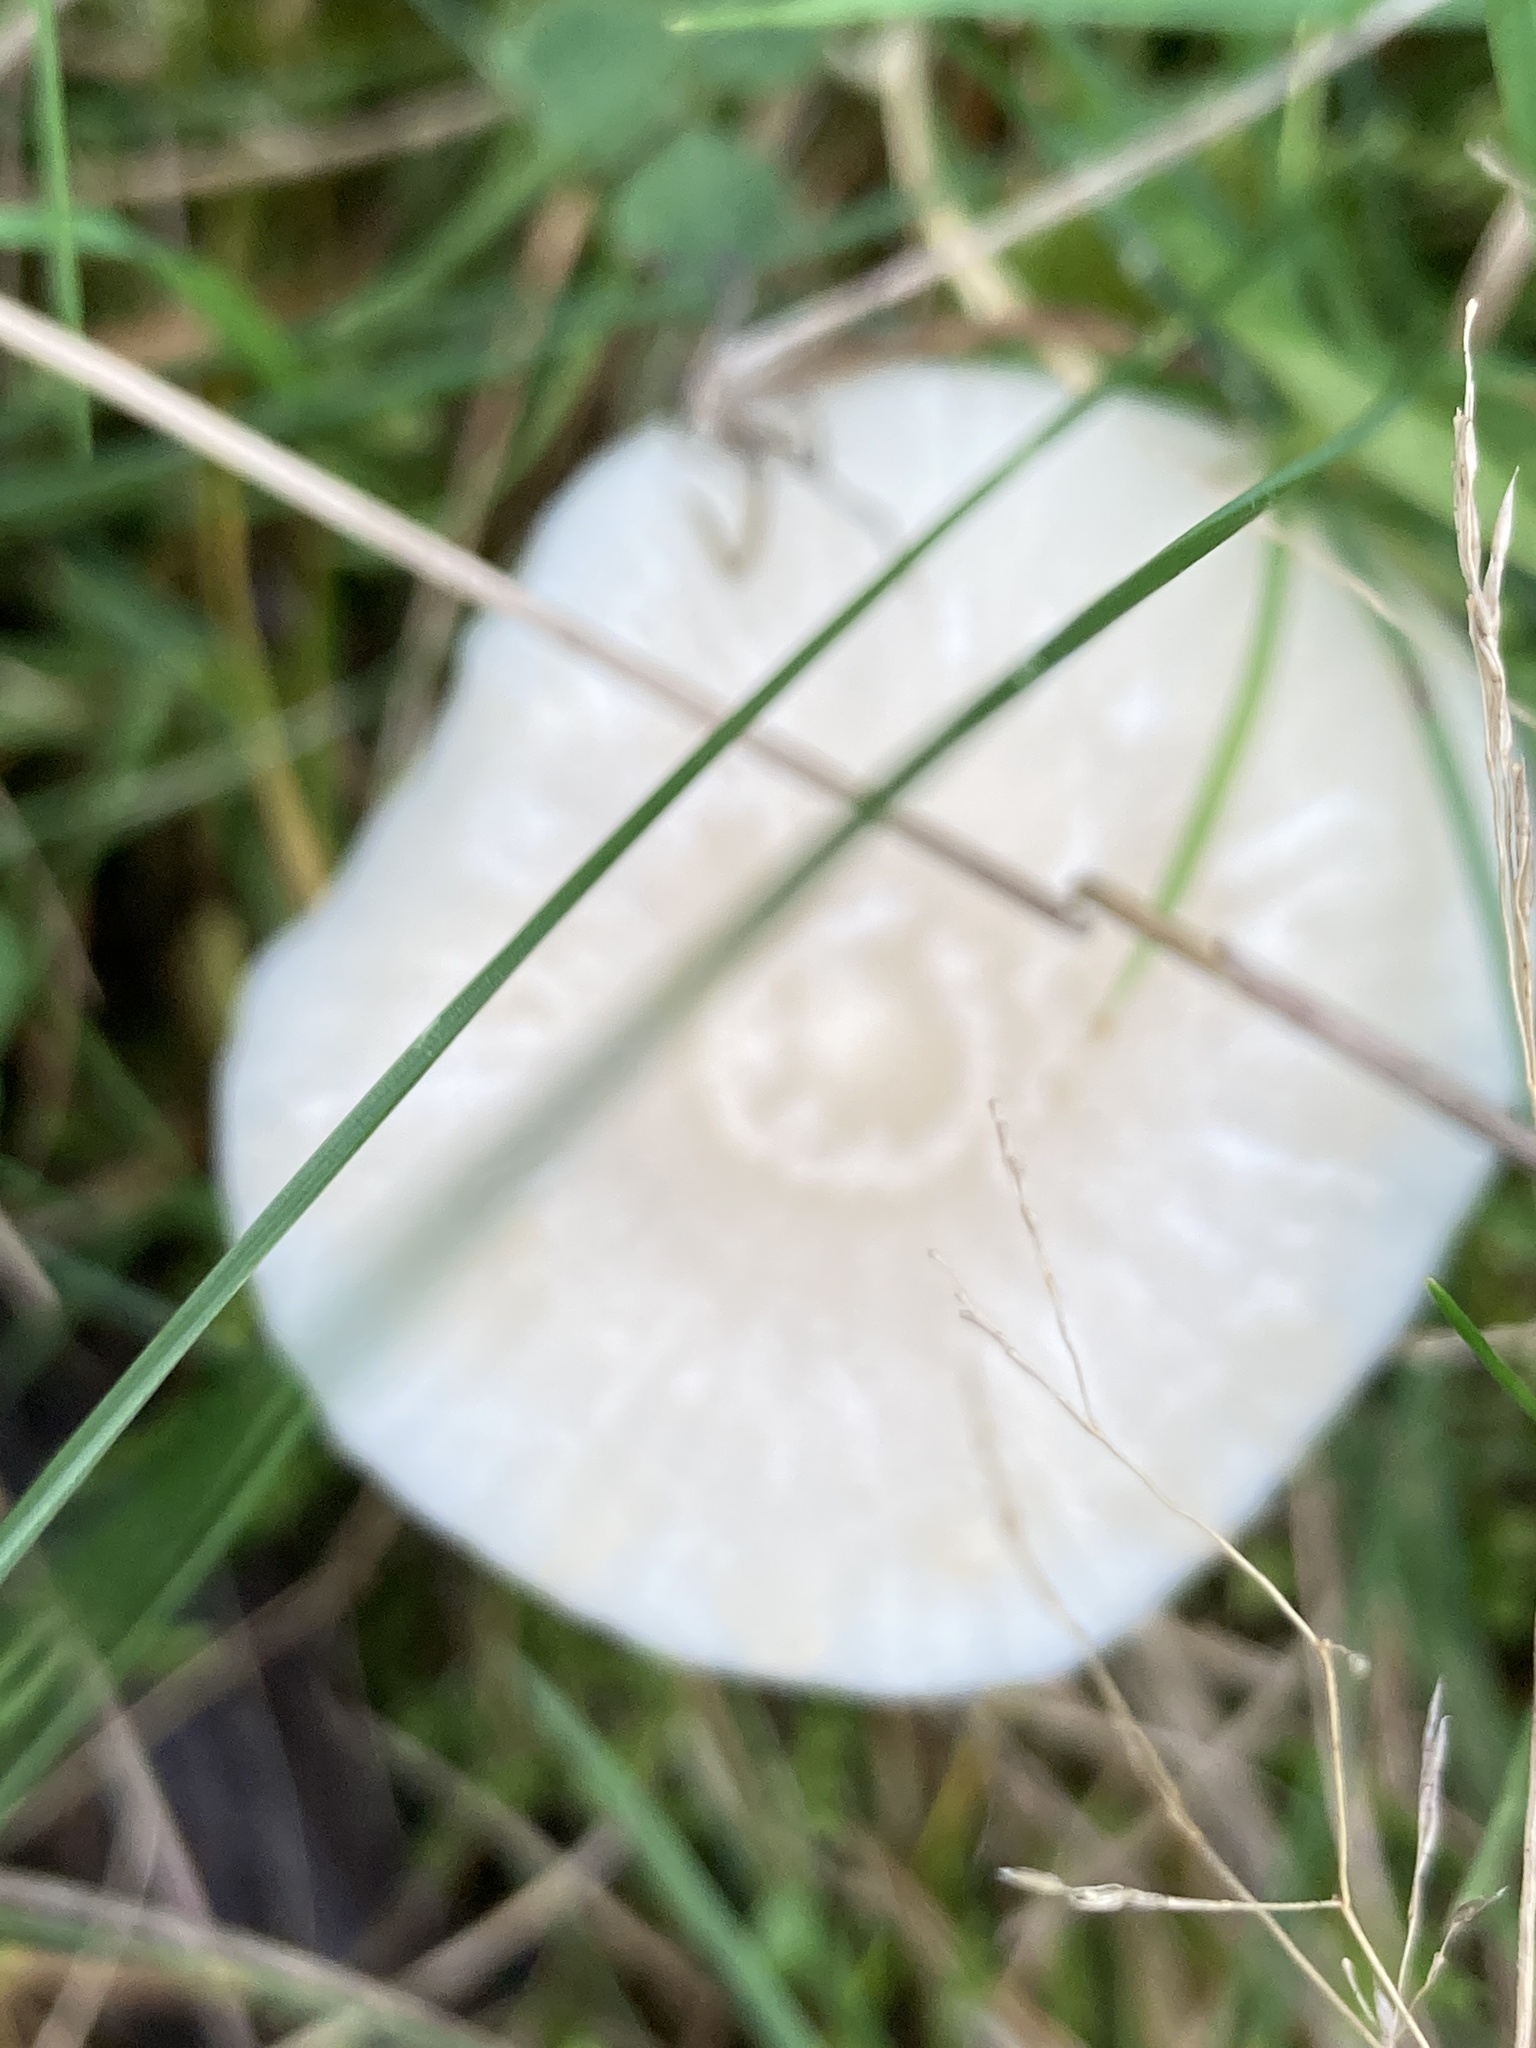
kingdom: Fungi
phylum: Basidiomycota
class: Agaricomycetes
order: Agaricales
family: Hygrophoraceae
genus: Cuphophyllus
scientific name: Cuphophyllus virgineus
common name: Snowy waxcap
